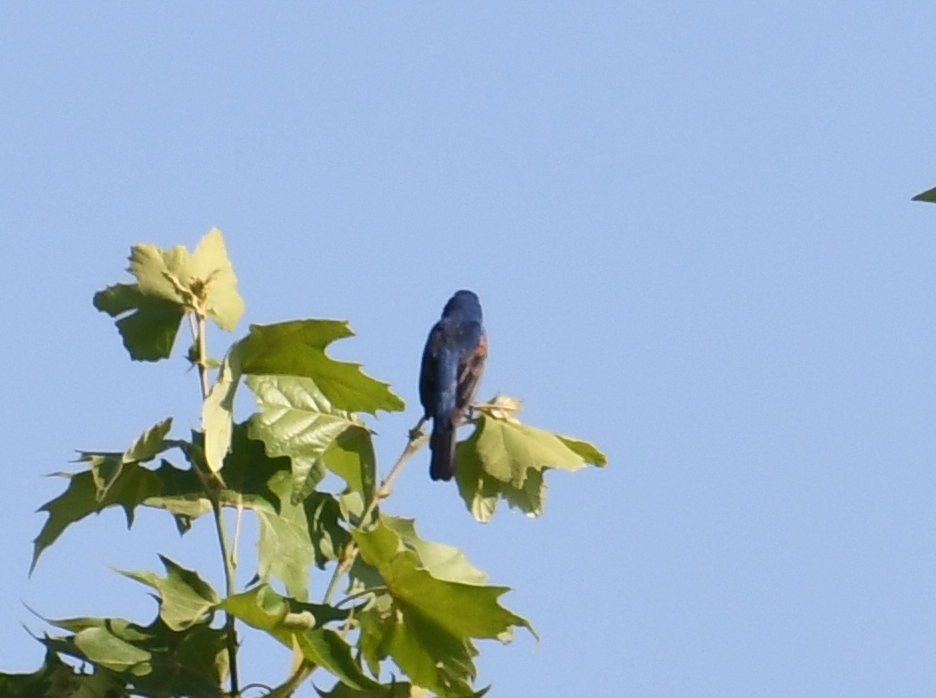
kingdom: Animalia
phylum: Chordata
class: Aves
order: Passeriformes
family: Cardinalidae
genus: Passerina
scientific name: Passerina caerulea
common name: Blue grosbeak
